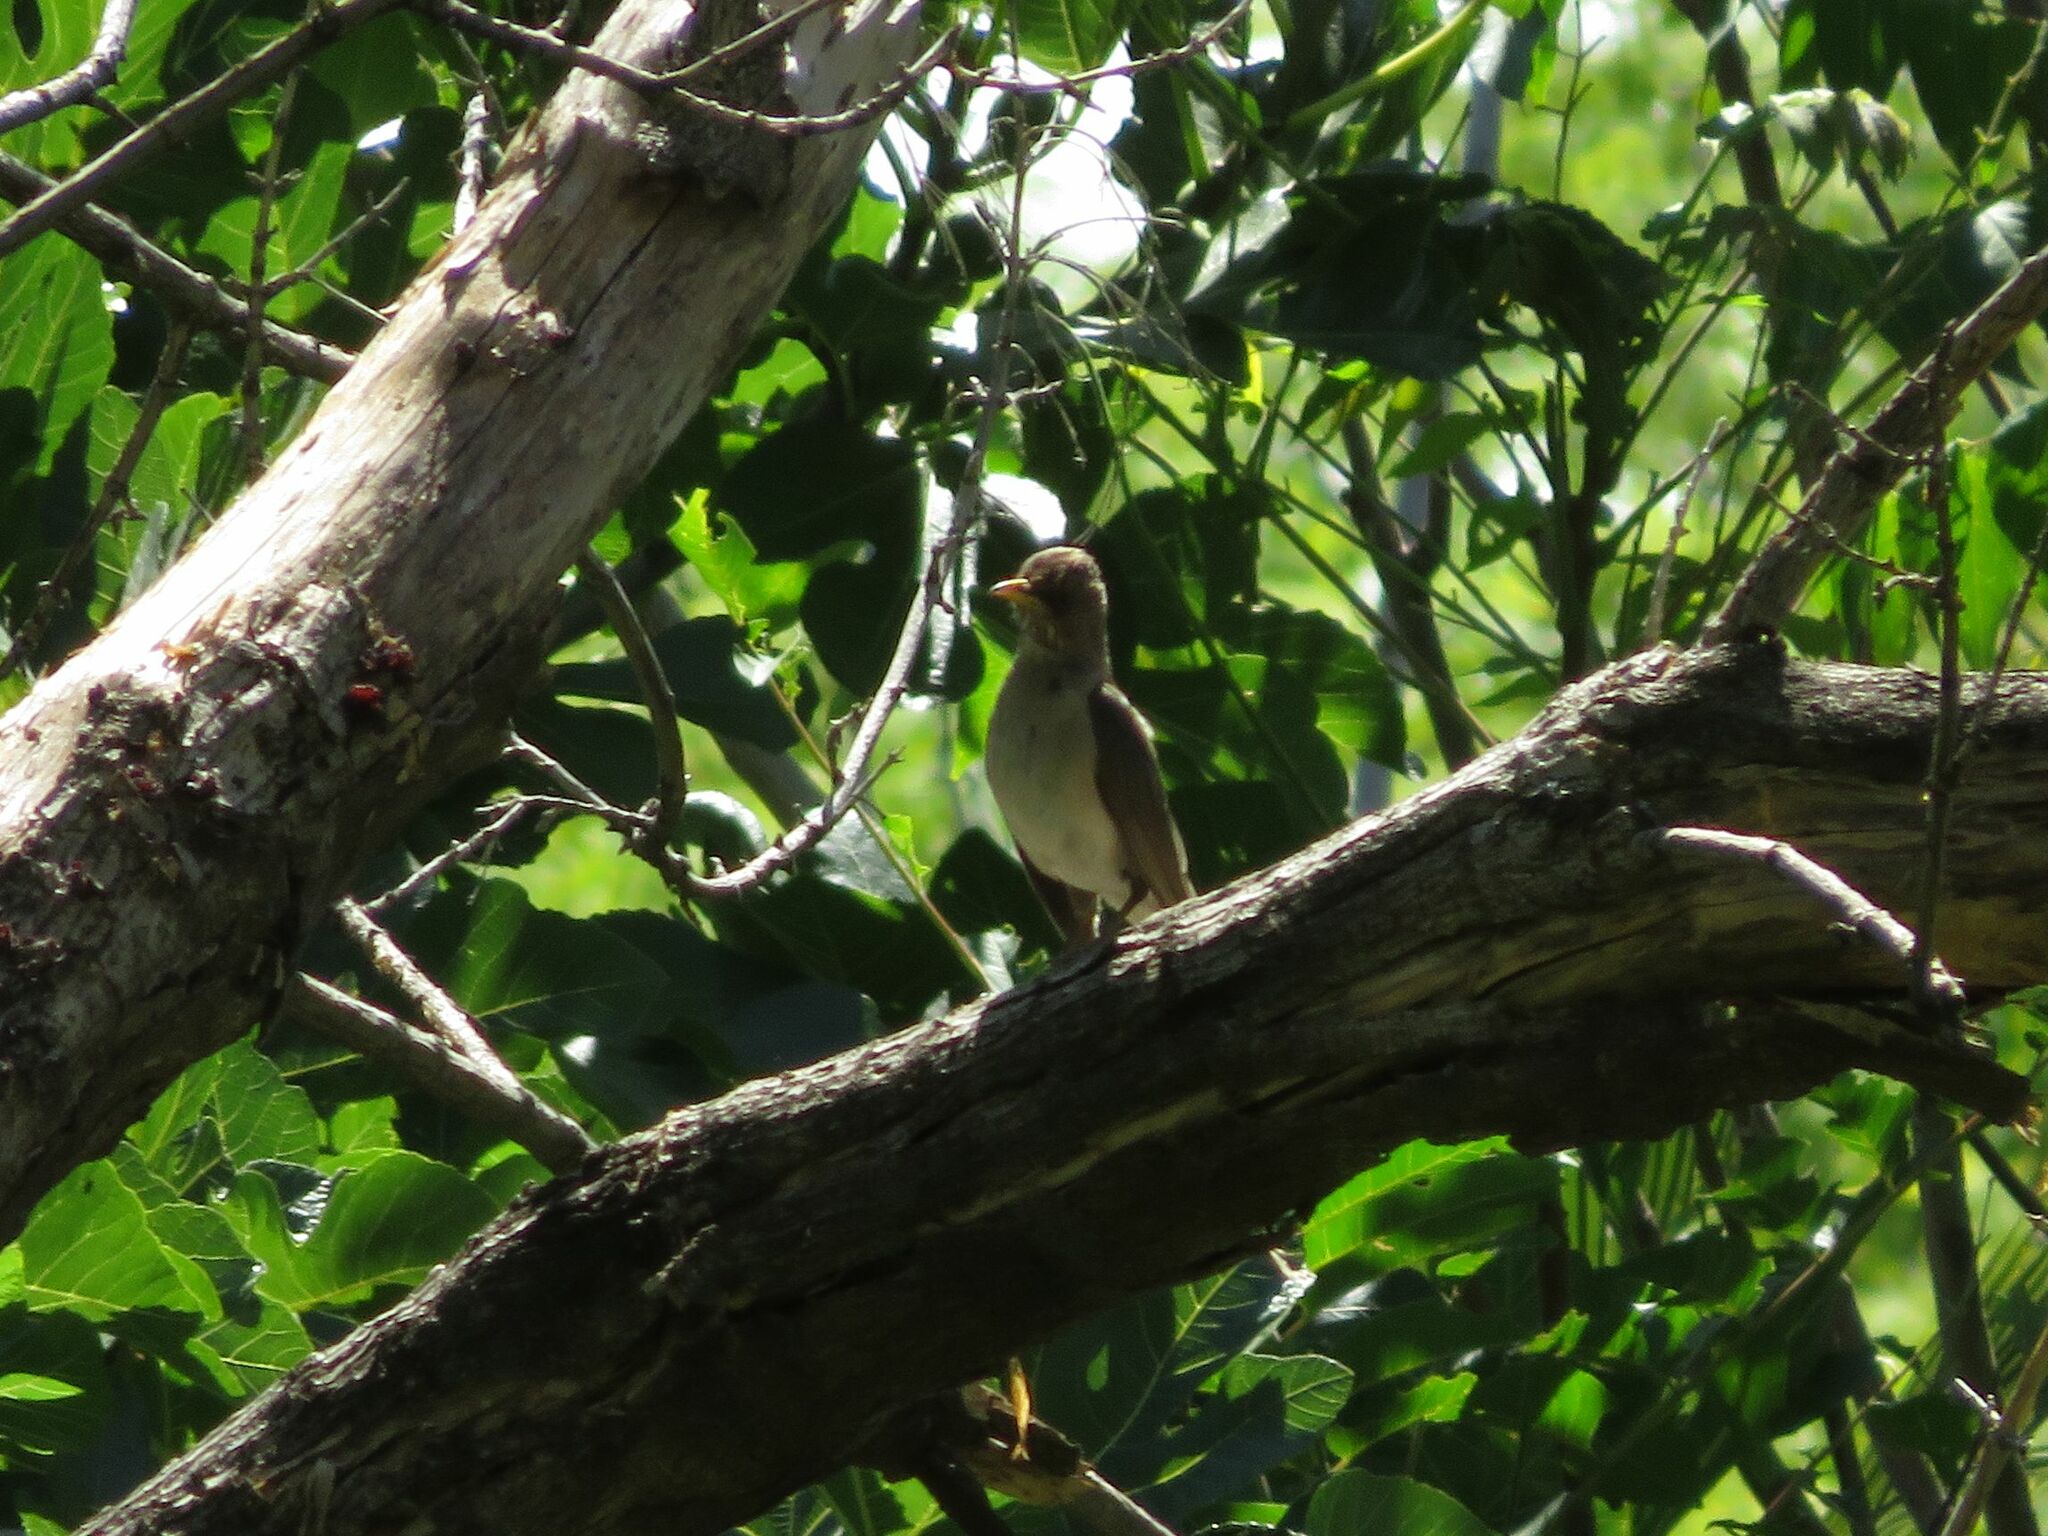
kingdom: Animalia
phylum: Chordata
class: Aves
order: Passeriformes
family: Turdidae
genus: Turdus
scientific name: Turdus amaurochalinus
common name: Creamy-bellied thrush
